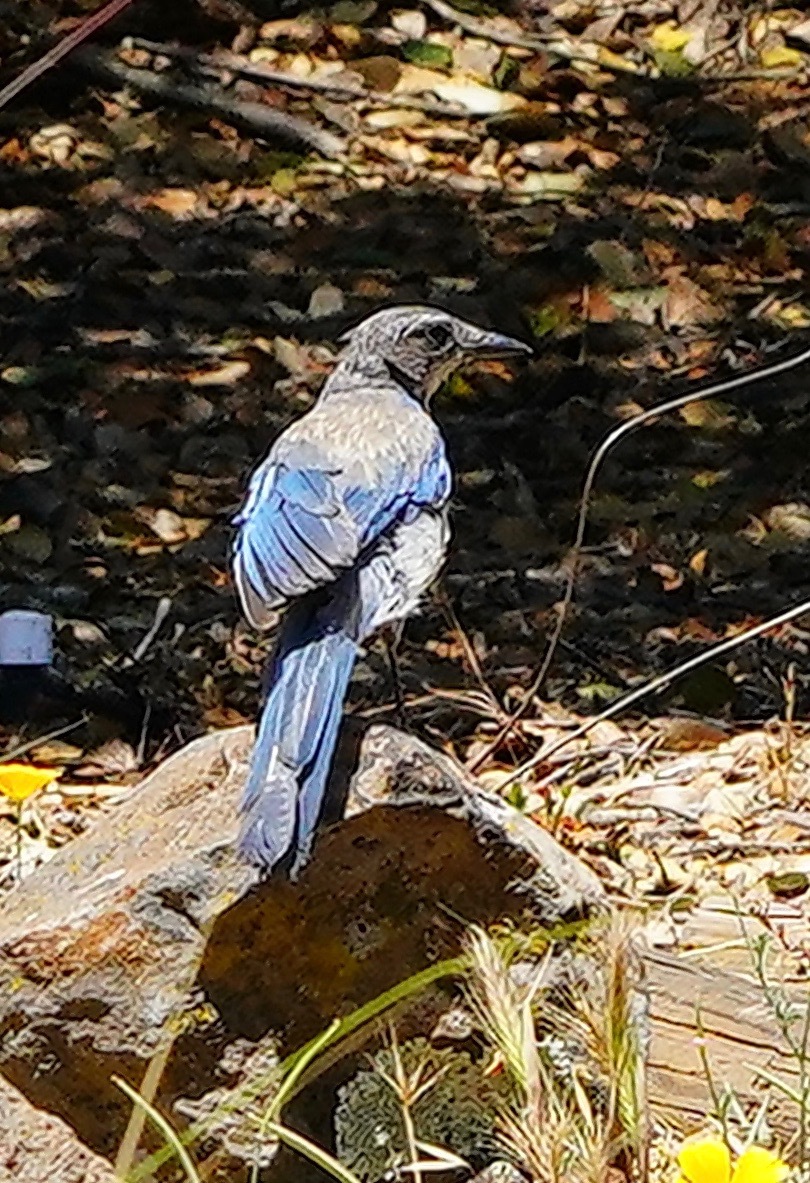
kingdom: Animalia
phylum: Chordata
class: Aves
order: Passeriformes
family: Corvidae
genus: Aphelocoma
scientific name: Aphelocoma californica
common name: California scrub-jay
